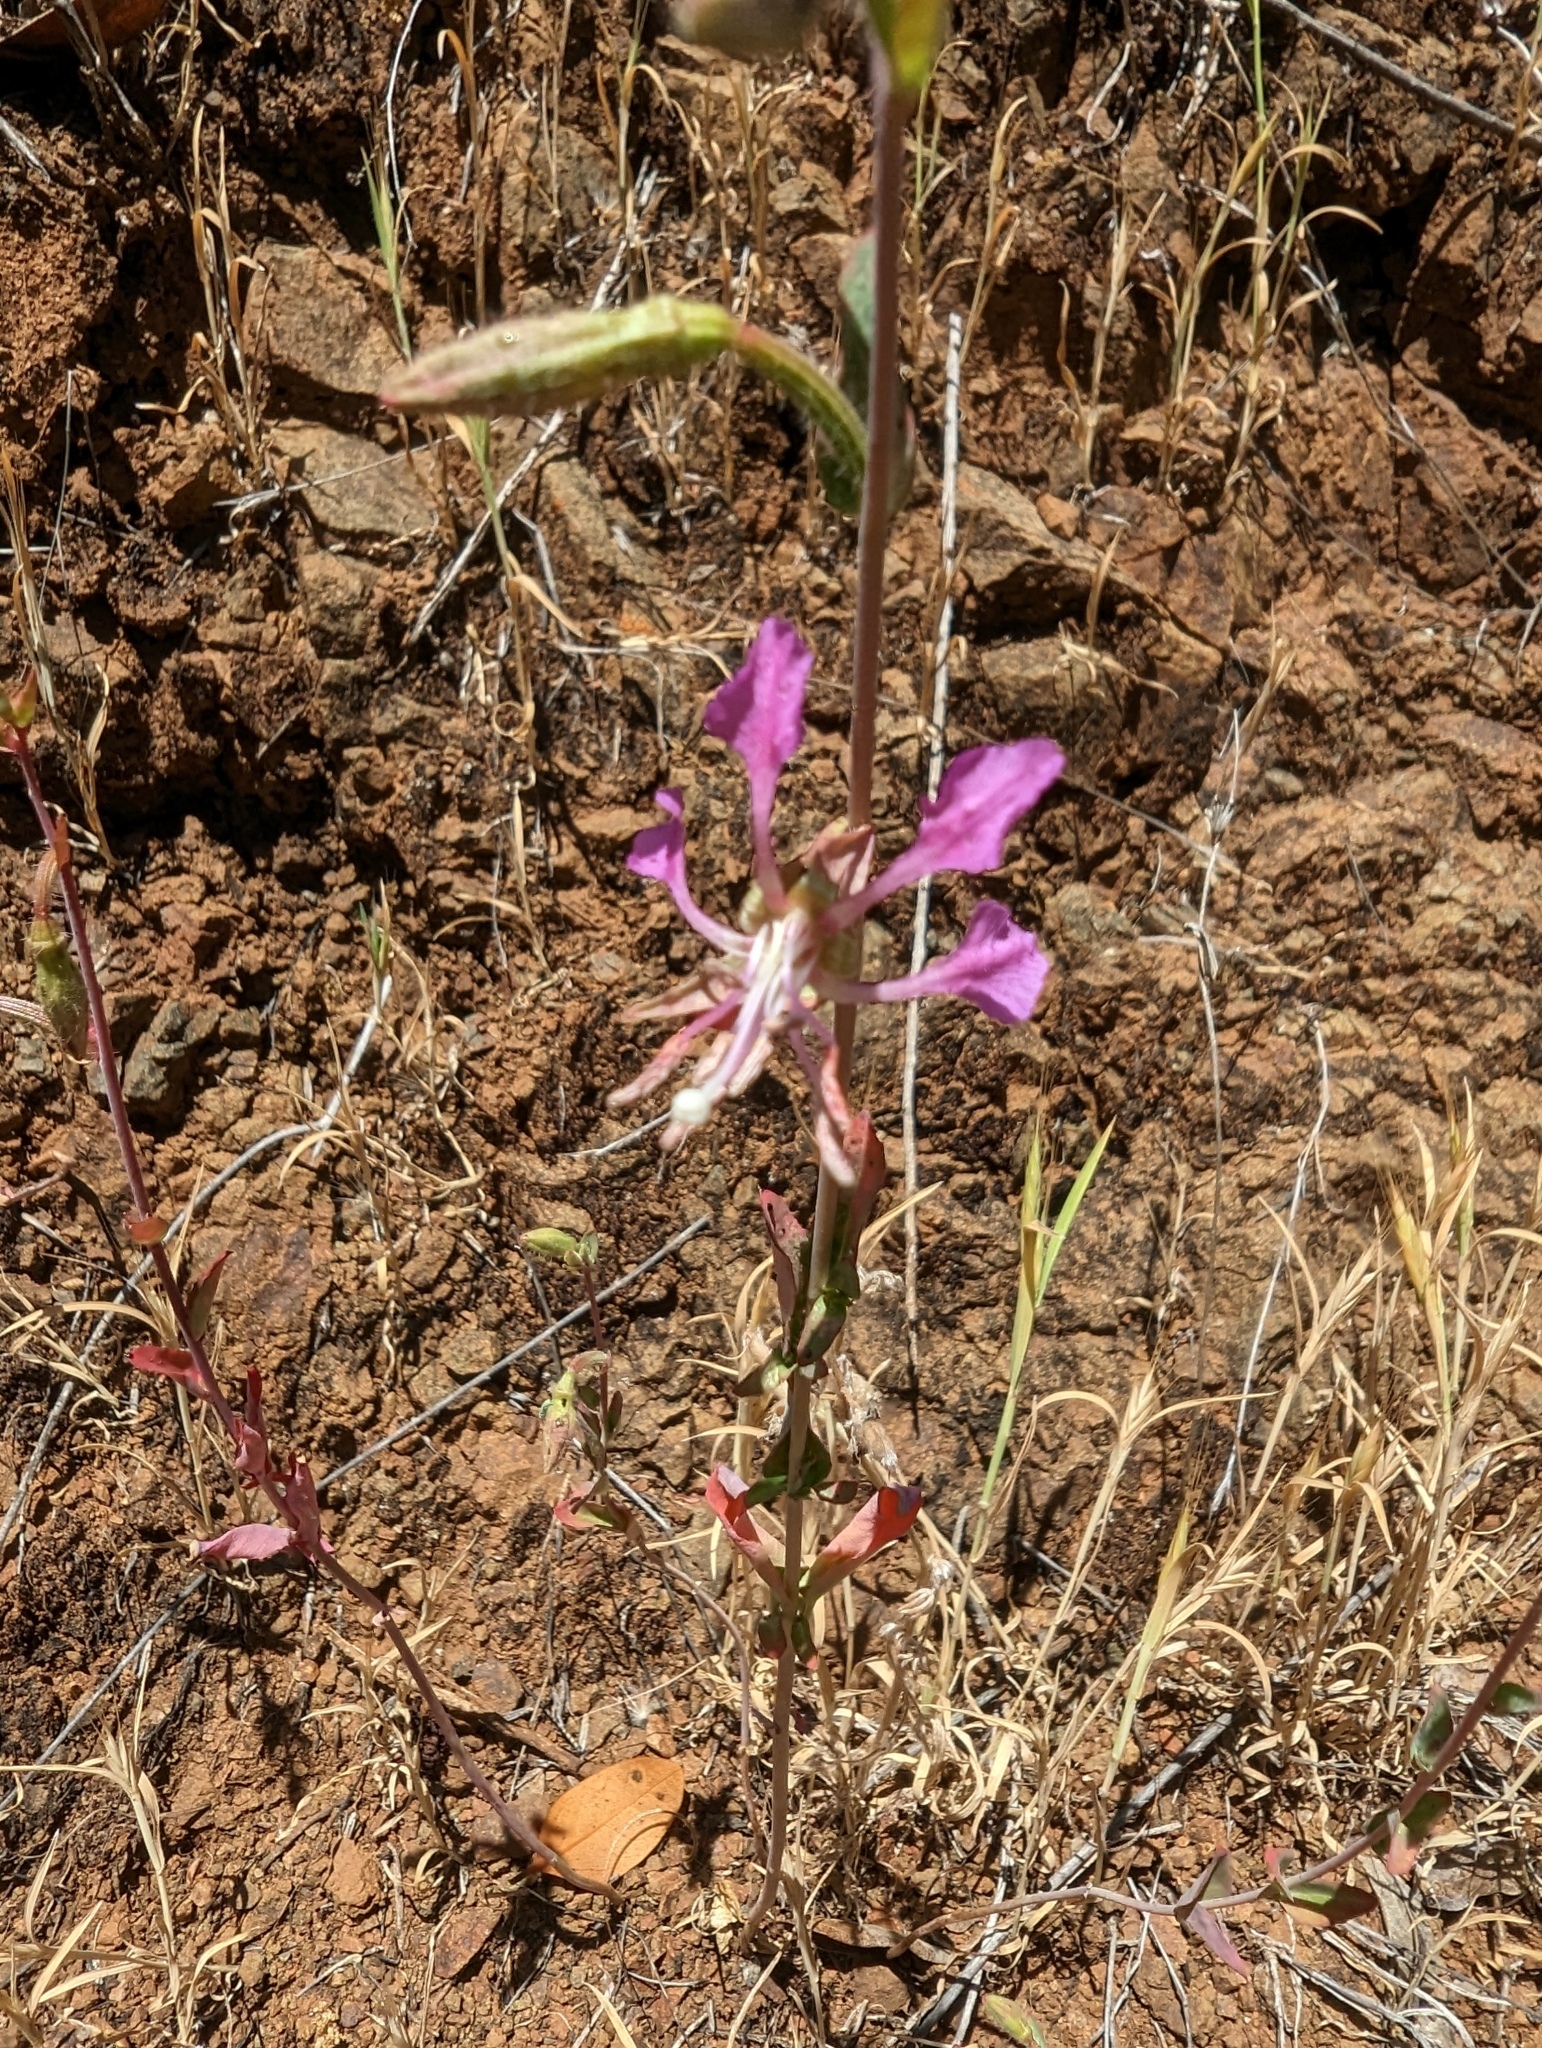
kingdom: Plantae
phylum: Tracheophyta
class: Magnoliopsida
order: Myrtales
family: Onagraceae
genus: Clarkia
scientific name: Clarkia unguiculata
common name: Clarkia
